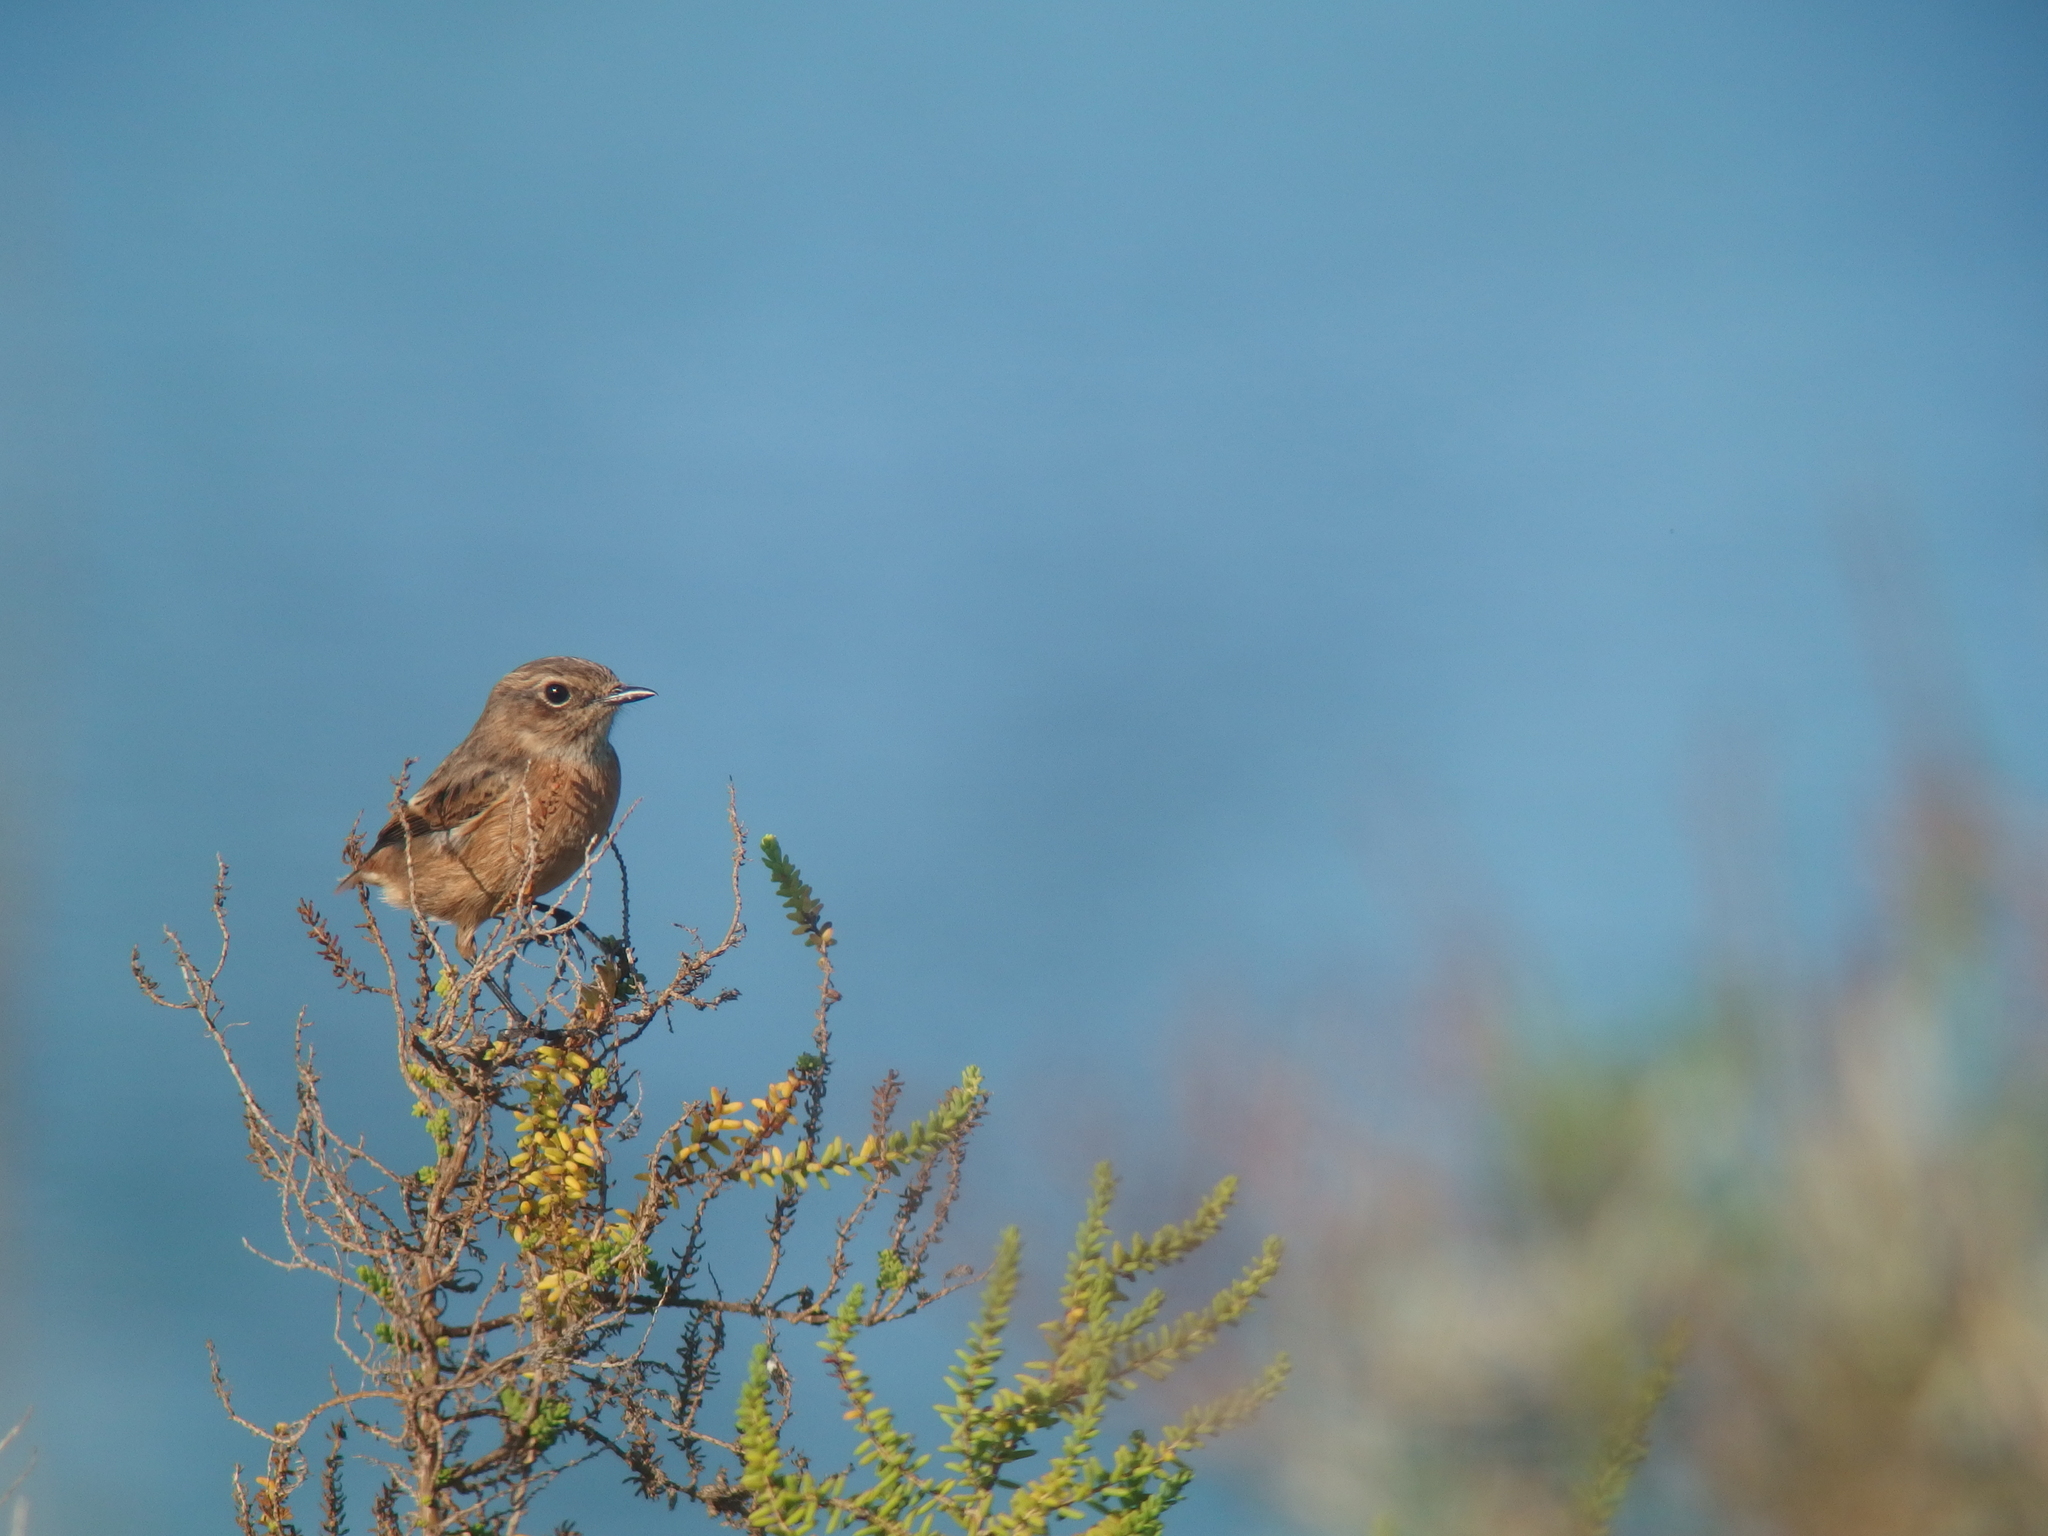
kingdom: Animalia
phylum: Chordata
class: Aves
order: Passeriformes
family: Muscicapidae
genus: Saxicola
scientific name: Saxicola rubicola
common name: European stonechat
